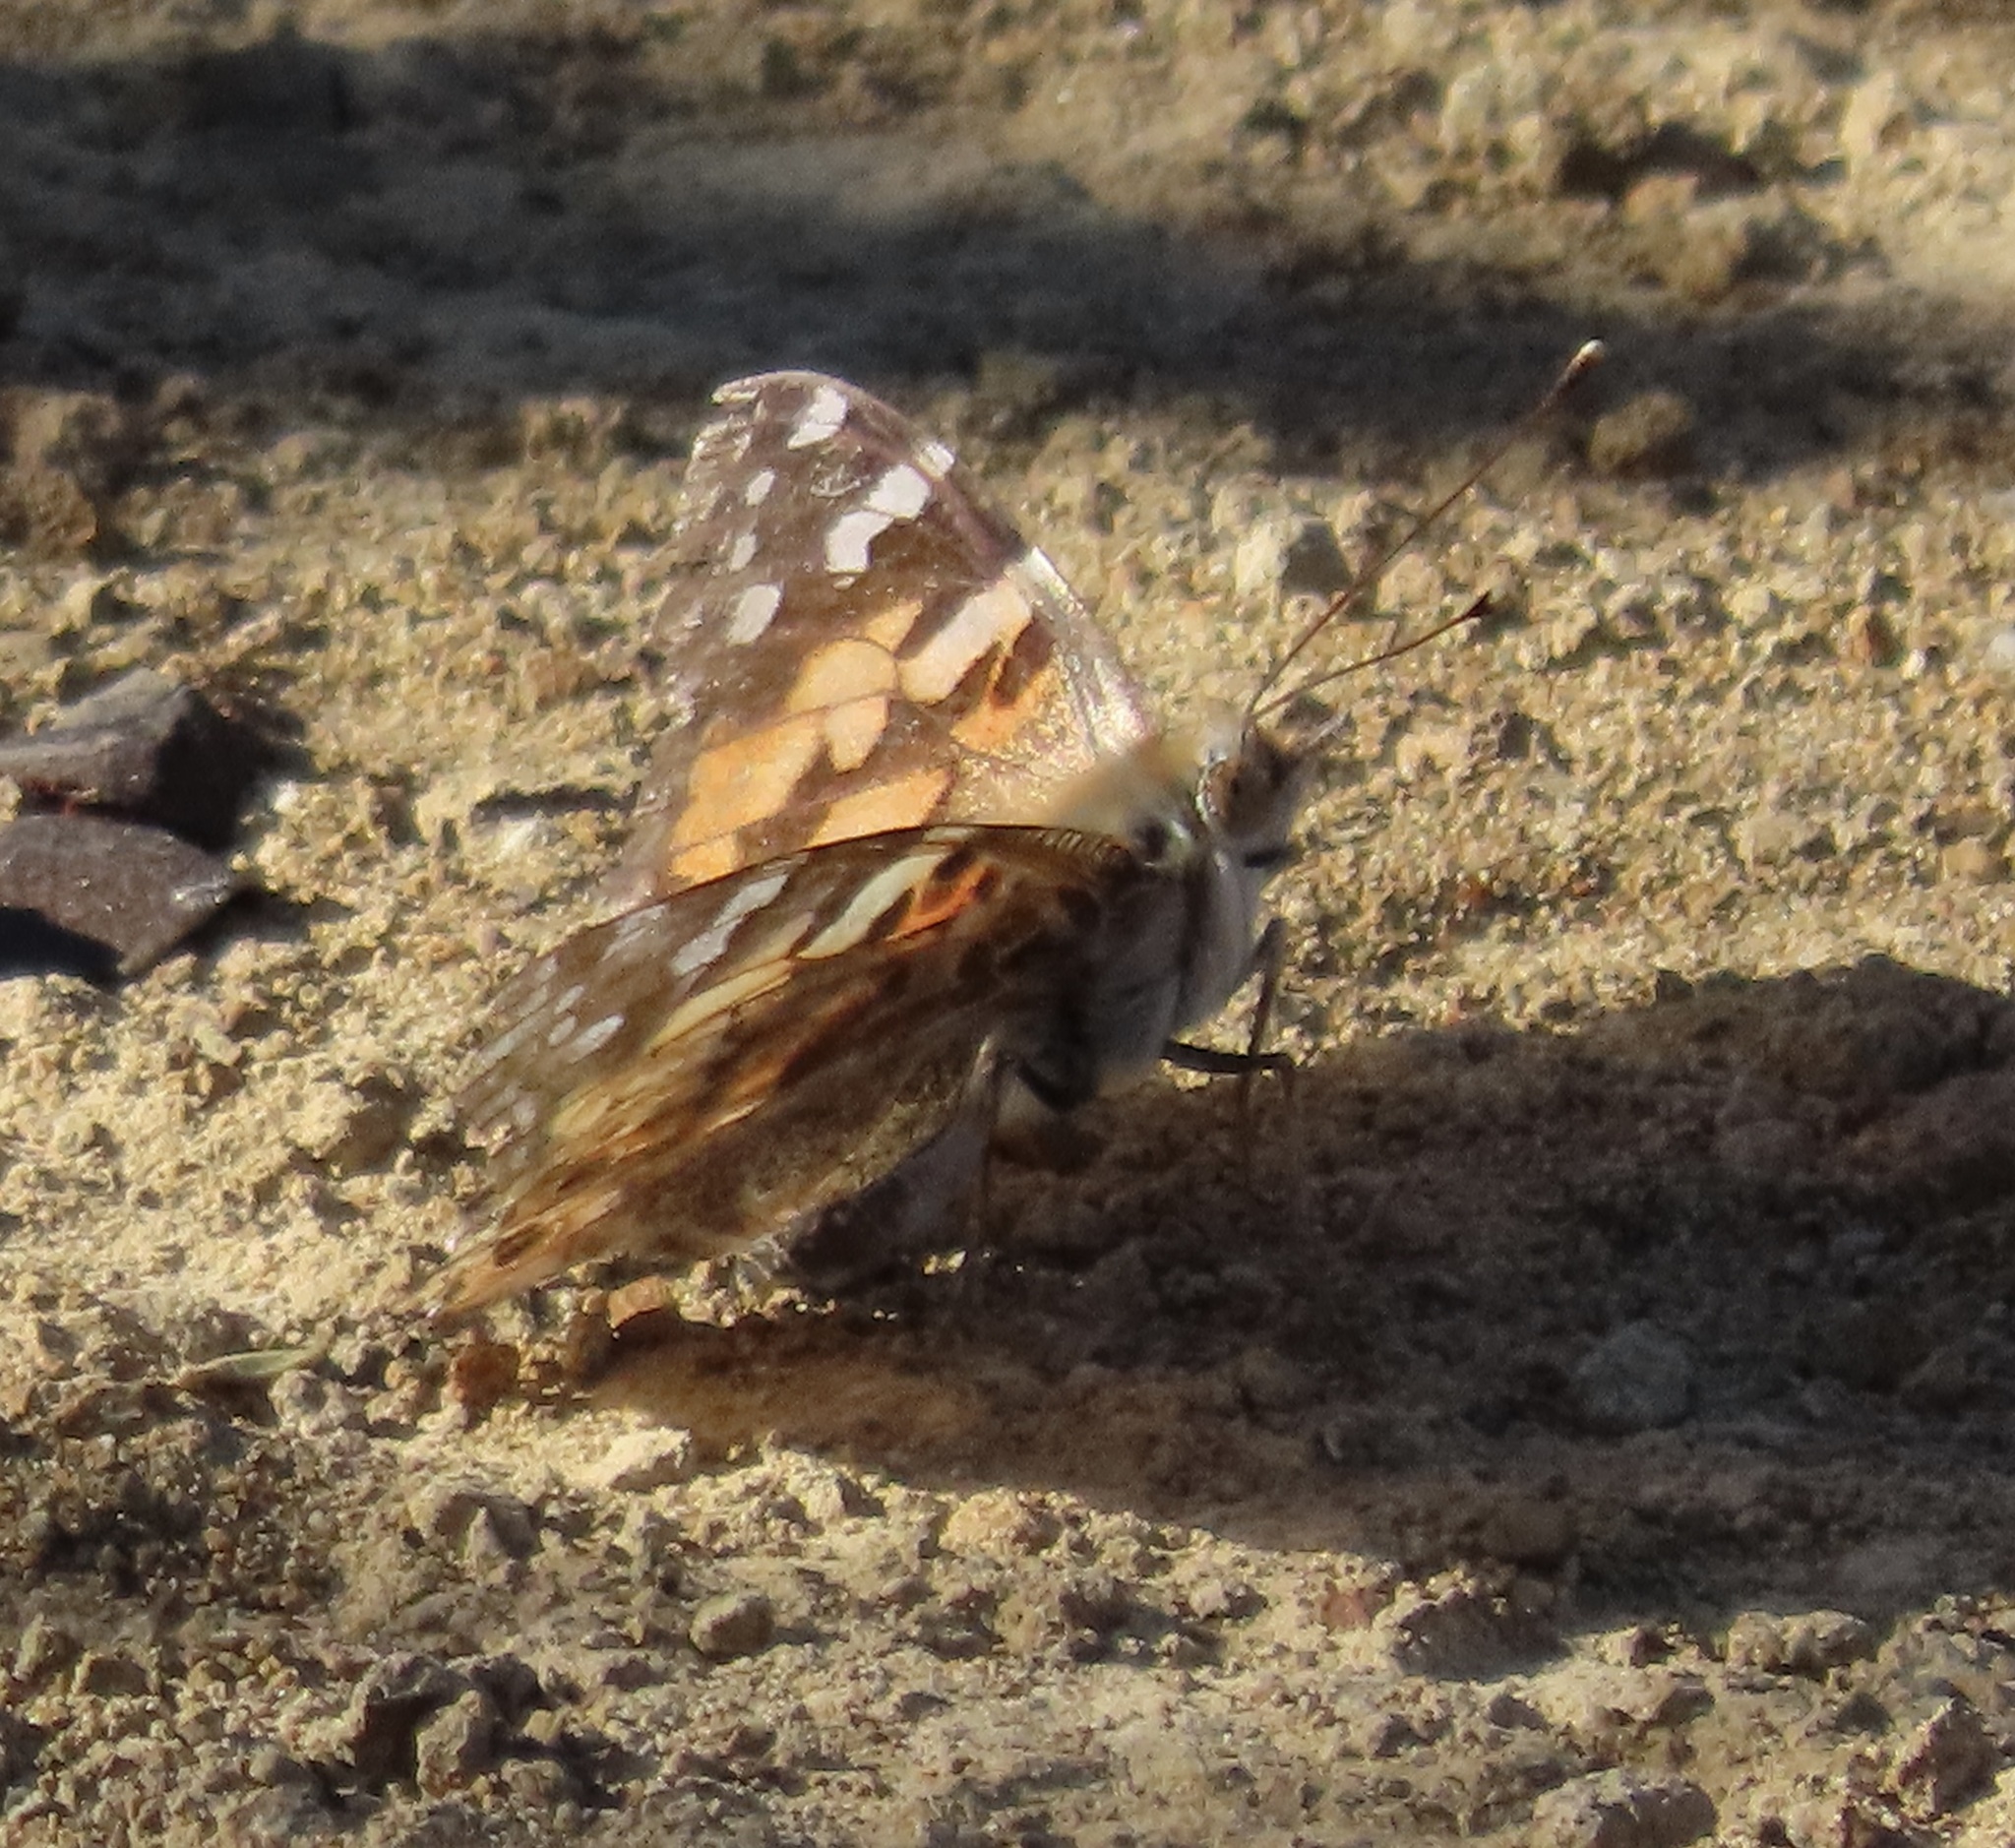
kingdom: Animalia
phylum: Arthropoda
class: Insecta
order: Lepidoptera
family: Nymphalidae
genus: Vanessa
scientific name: Vanessa cardui
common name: Painted lady
